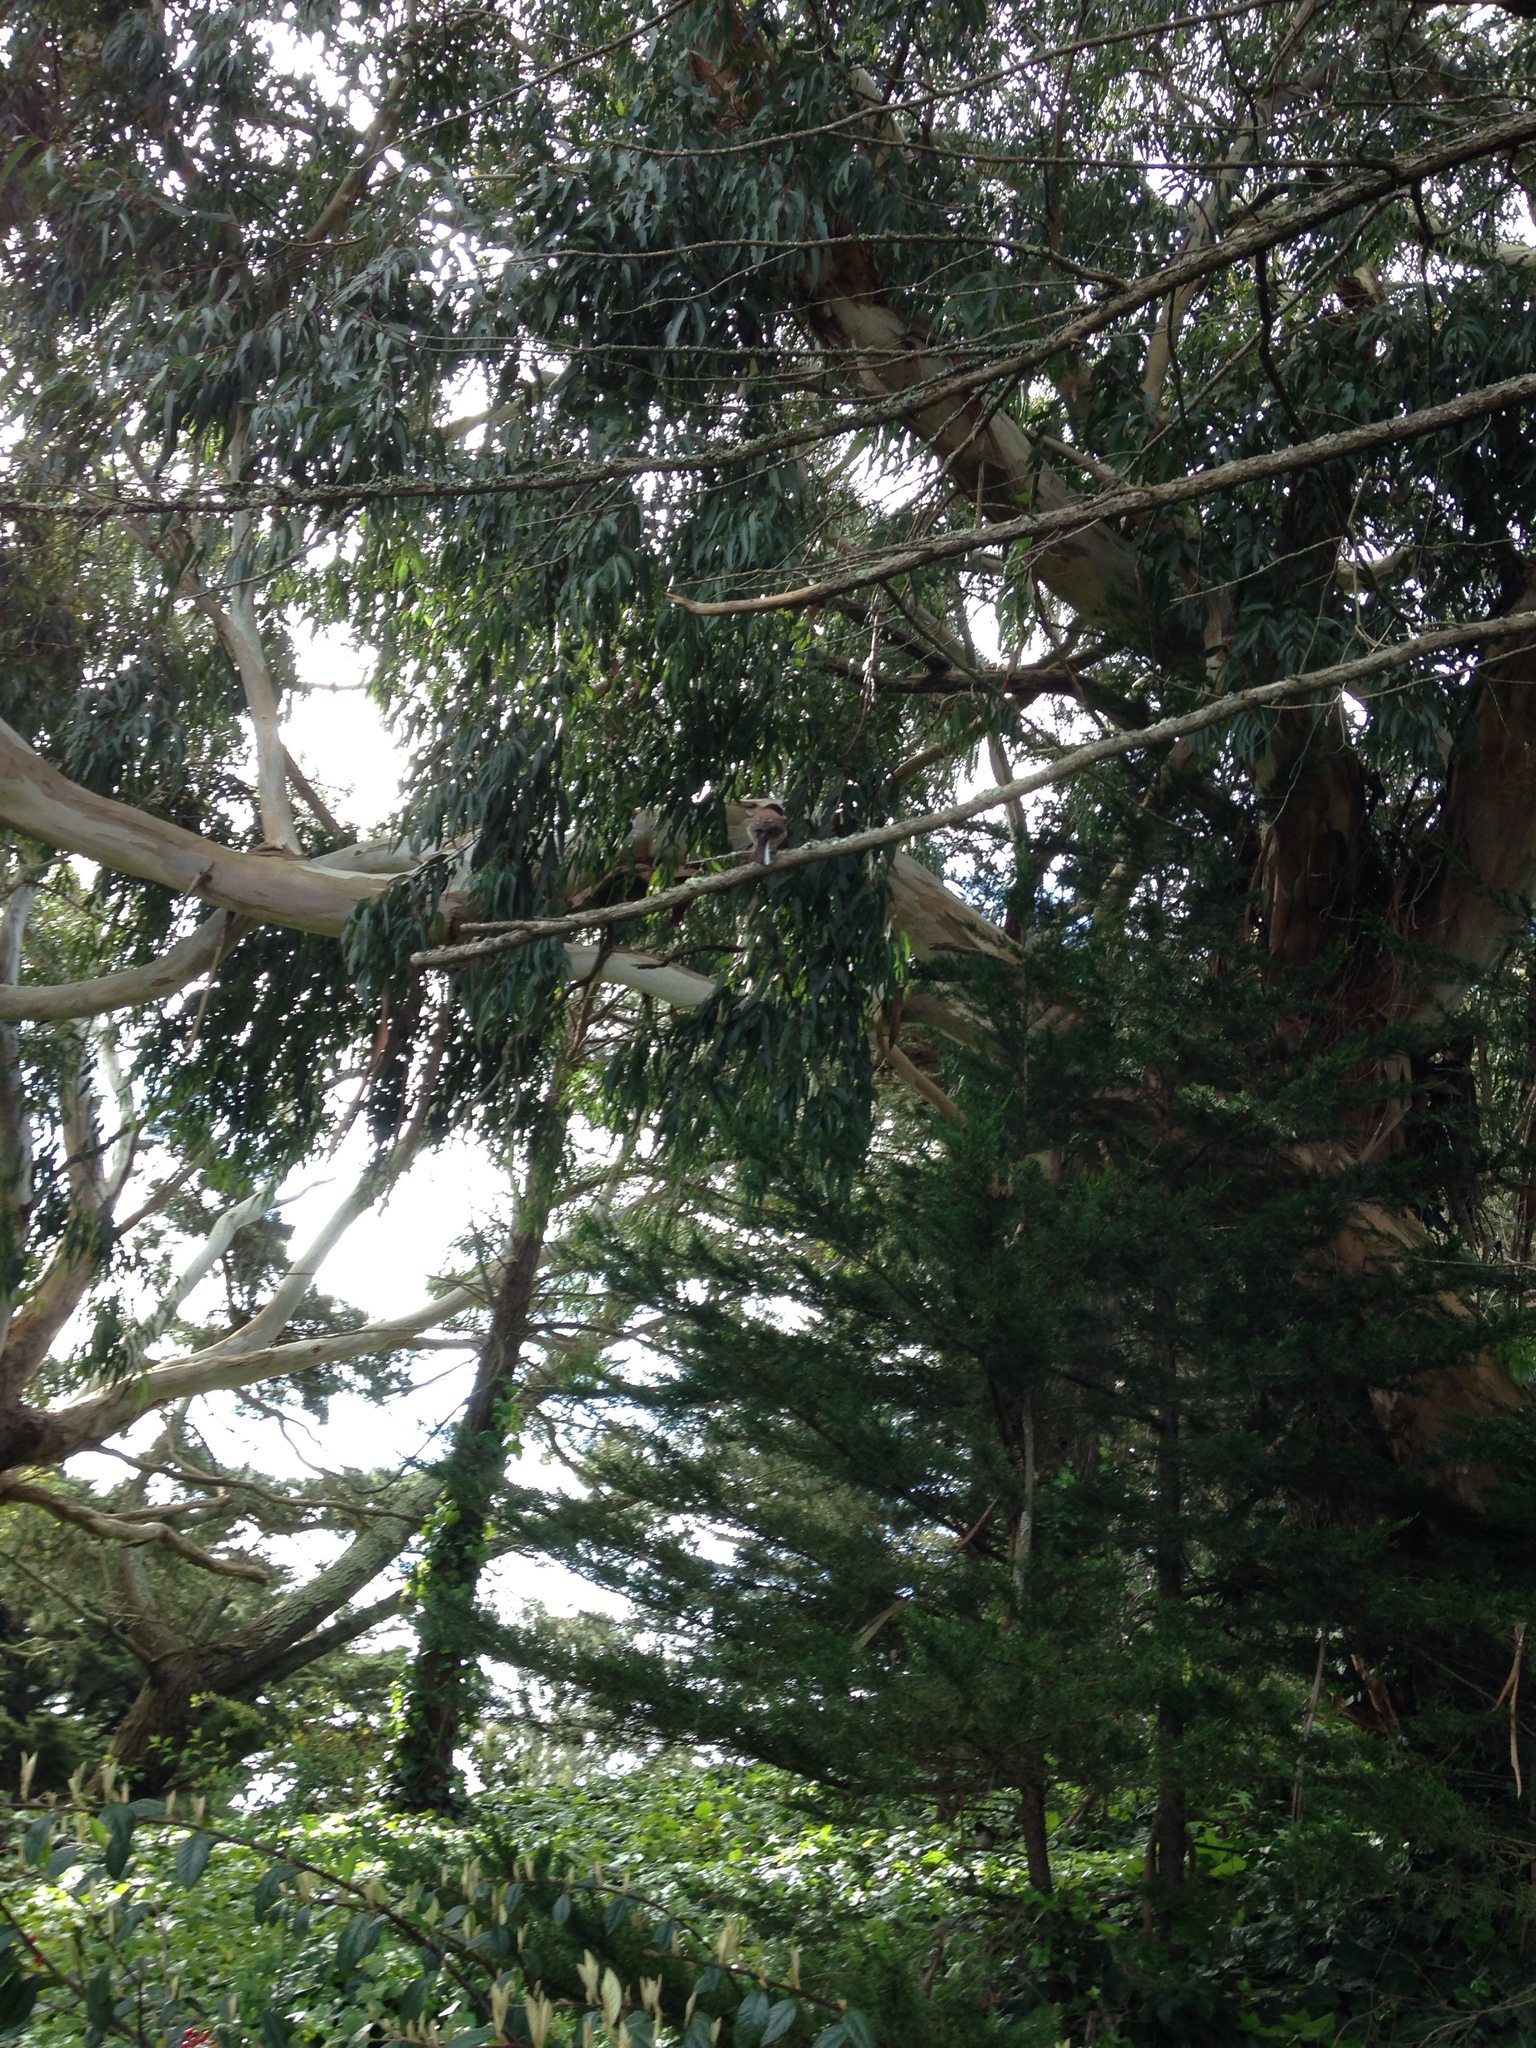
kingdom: Animalia
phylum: Chordata
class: Aves
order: Passeriformes
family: Passerellidae
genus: Junco
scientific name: Junco hyemalis
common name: Dark-eyed junco
